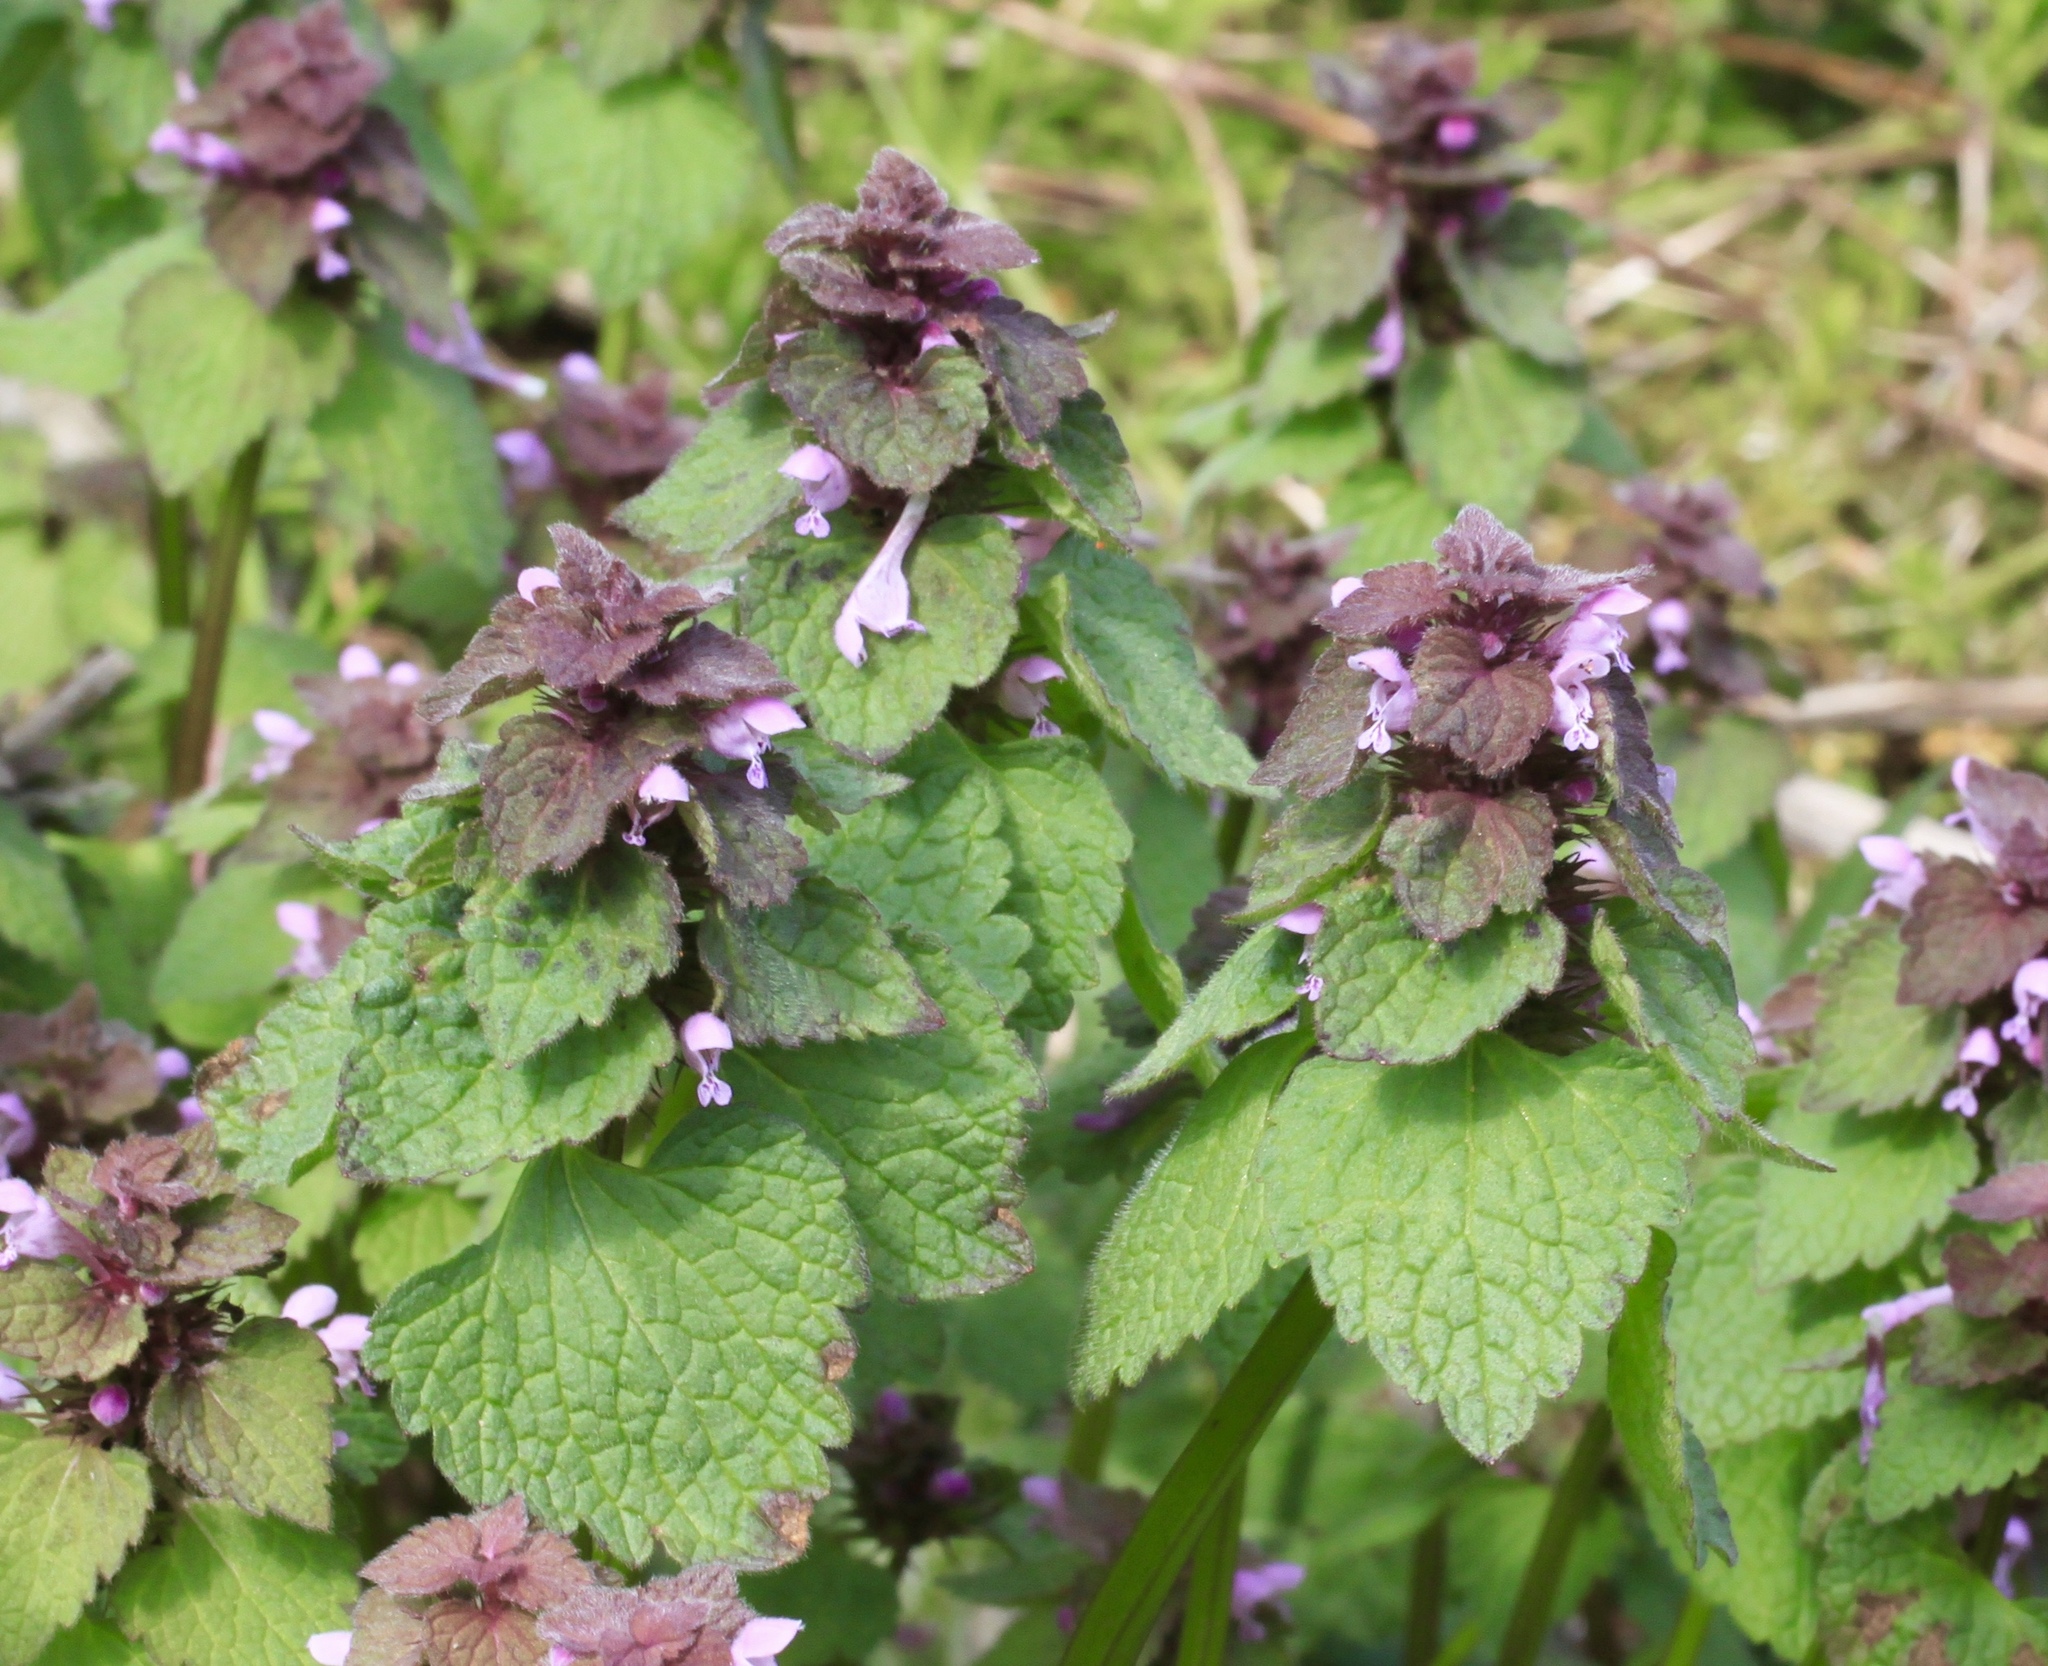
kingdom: Plantae
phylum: Tracheophyta
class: Magnoliopsida
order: Lamiales
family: Lamiaceae
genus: Lamium
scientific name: Lamium purpureum
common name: Red dead-nettle
